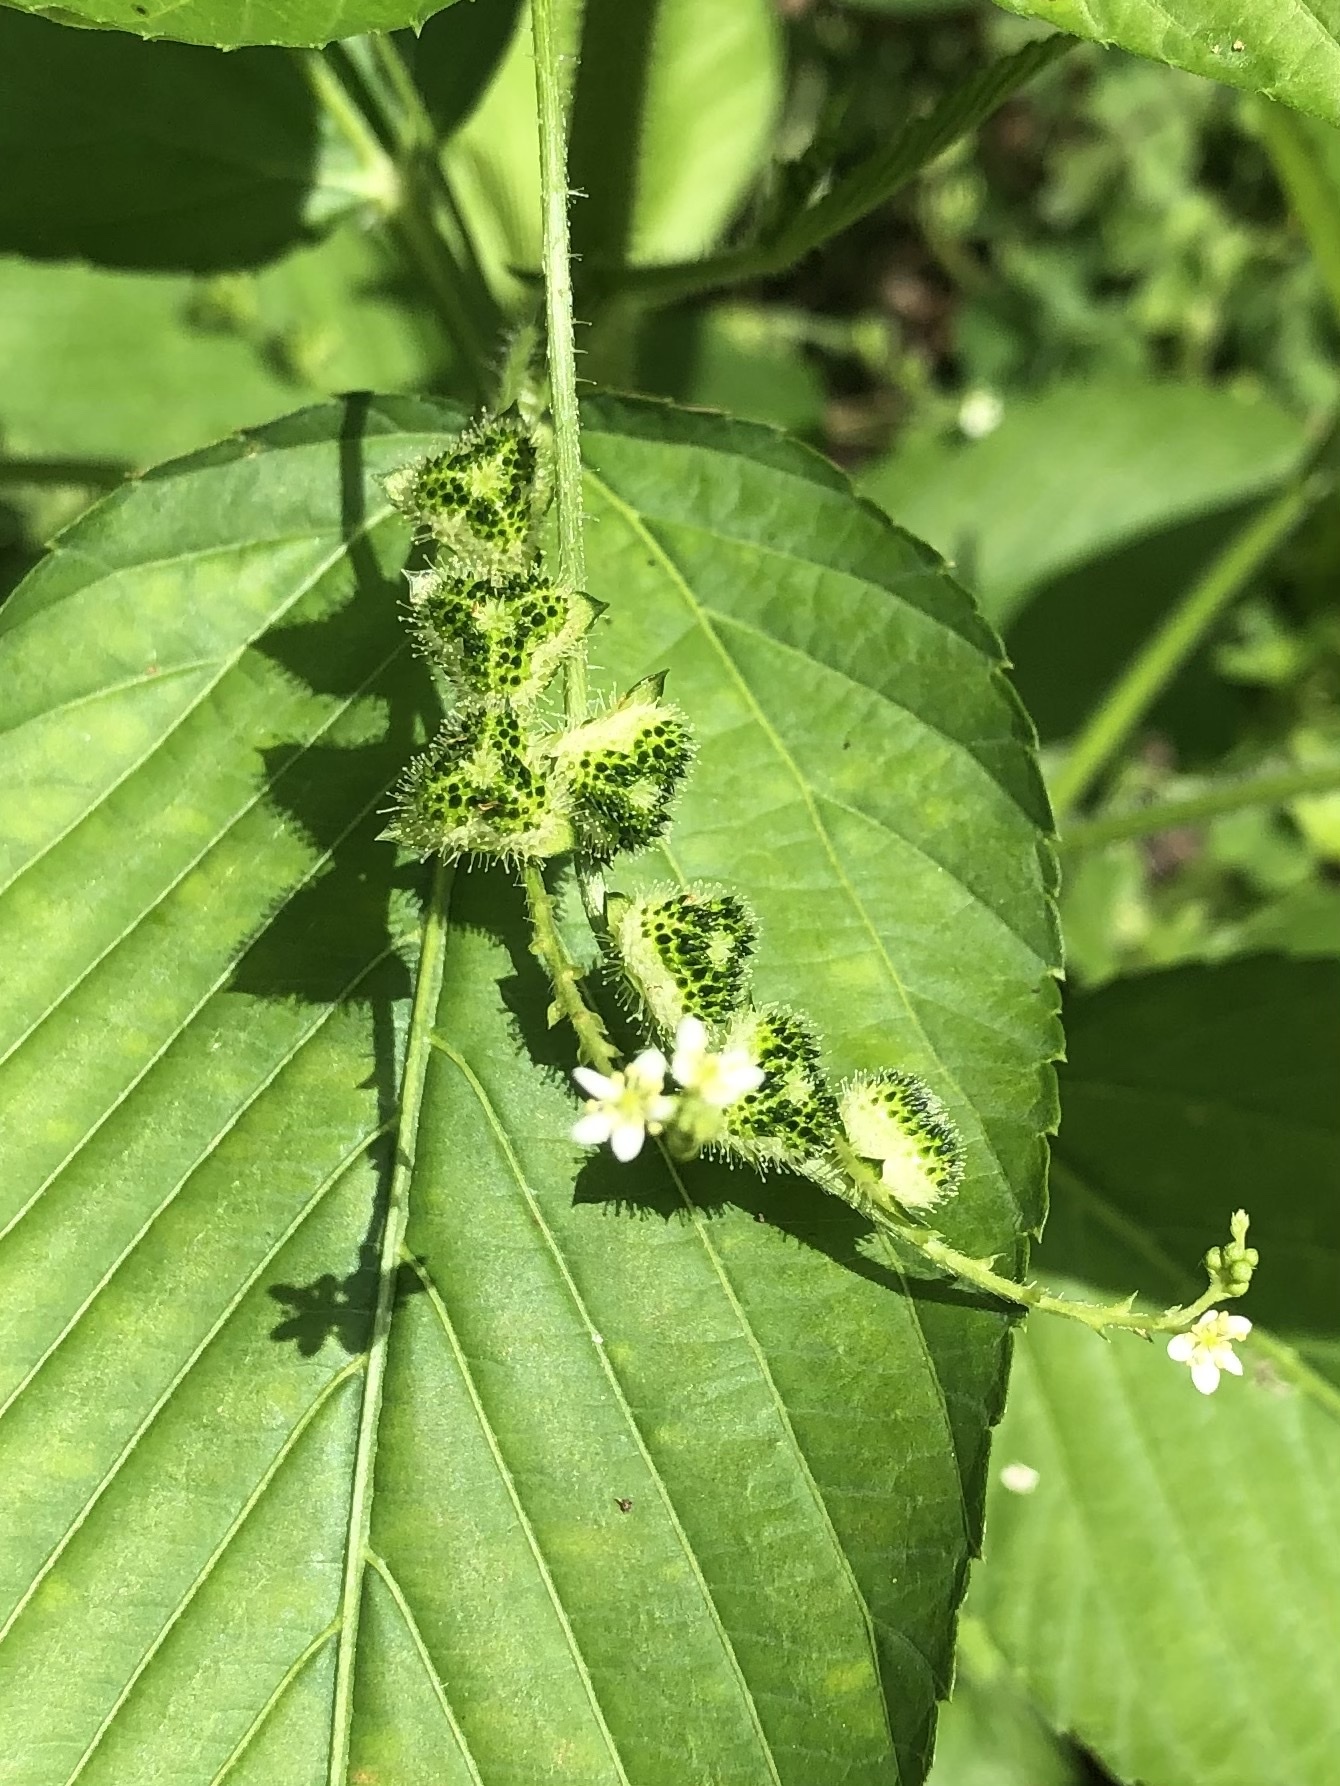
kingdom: Plantae
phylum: Tracheophyta
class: Magnoliopsida
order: Malpighiales
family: Euphorbiaceae
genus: Caperonia
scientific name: Caperonia palustris
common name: Sacatrapo
